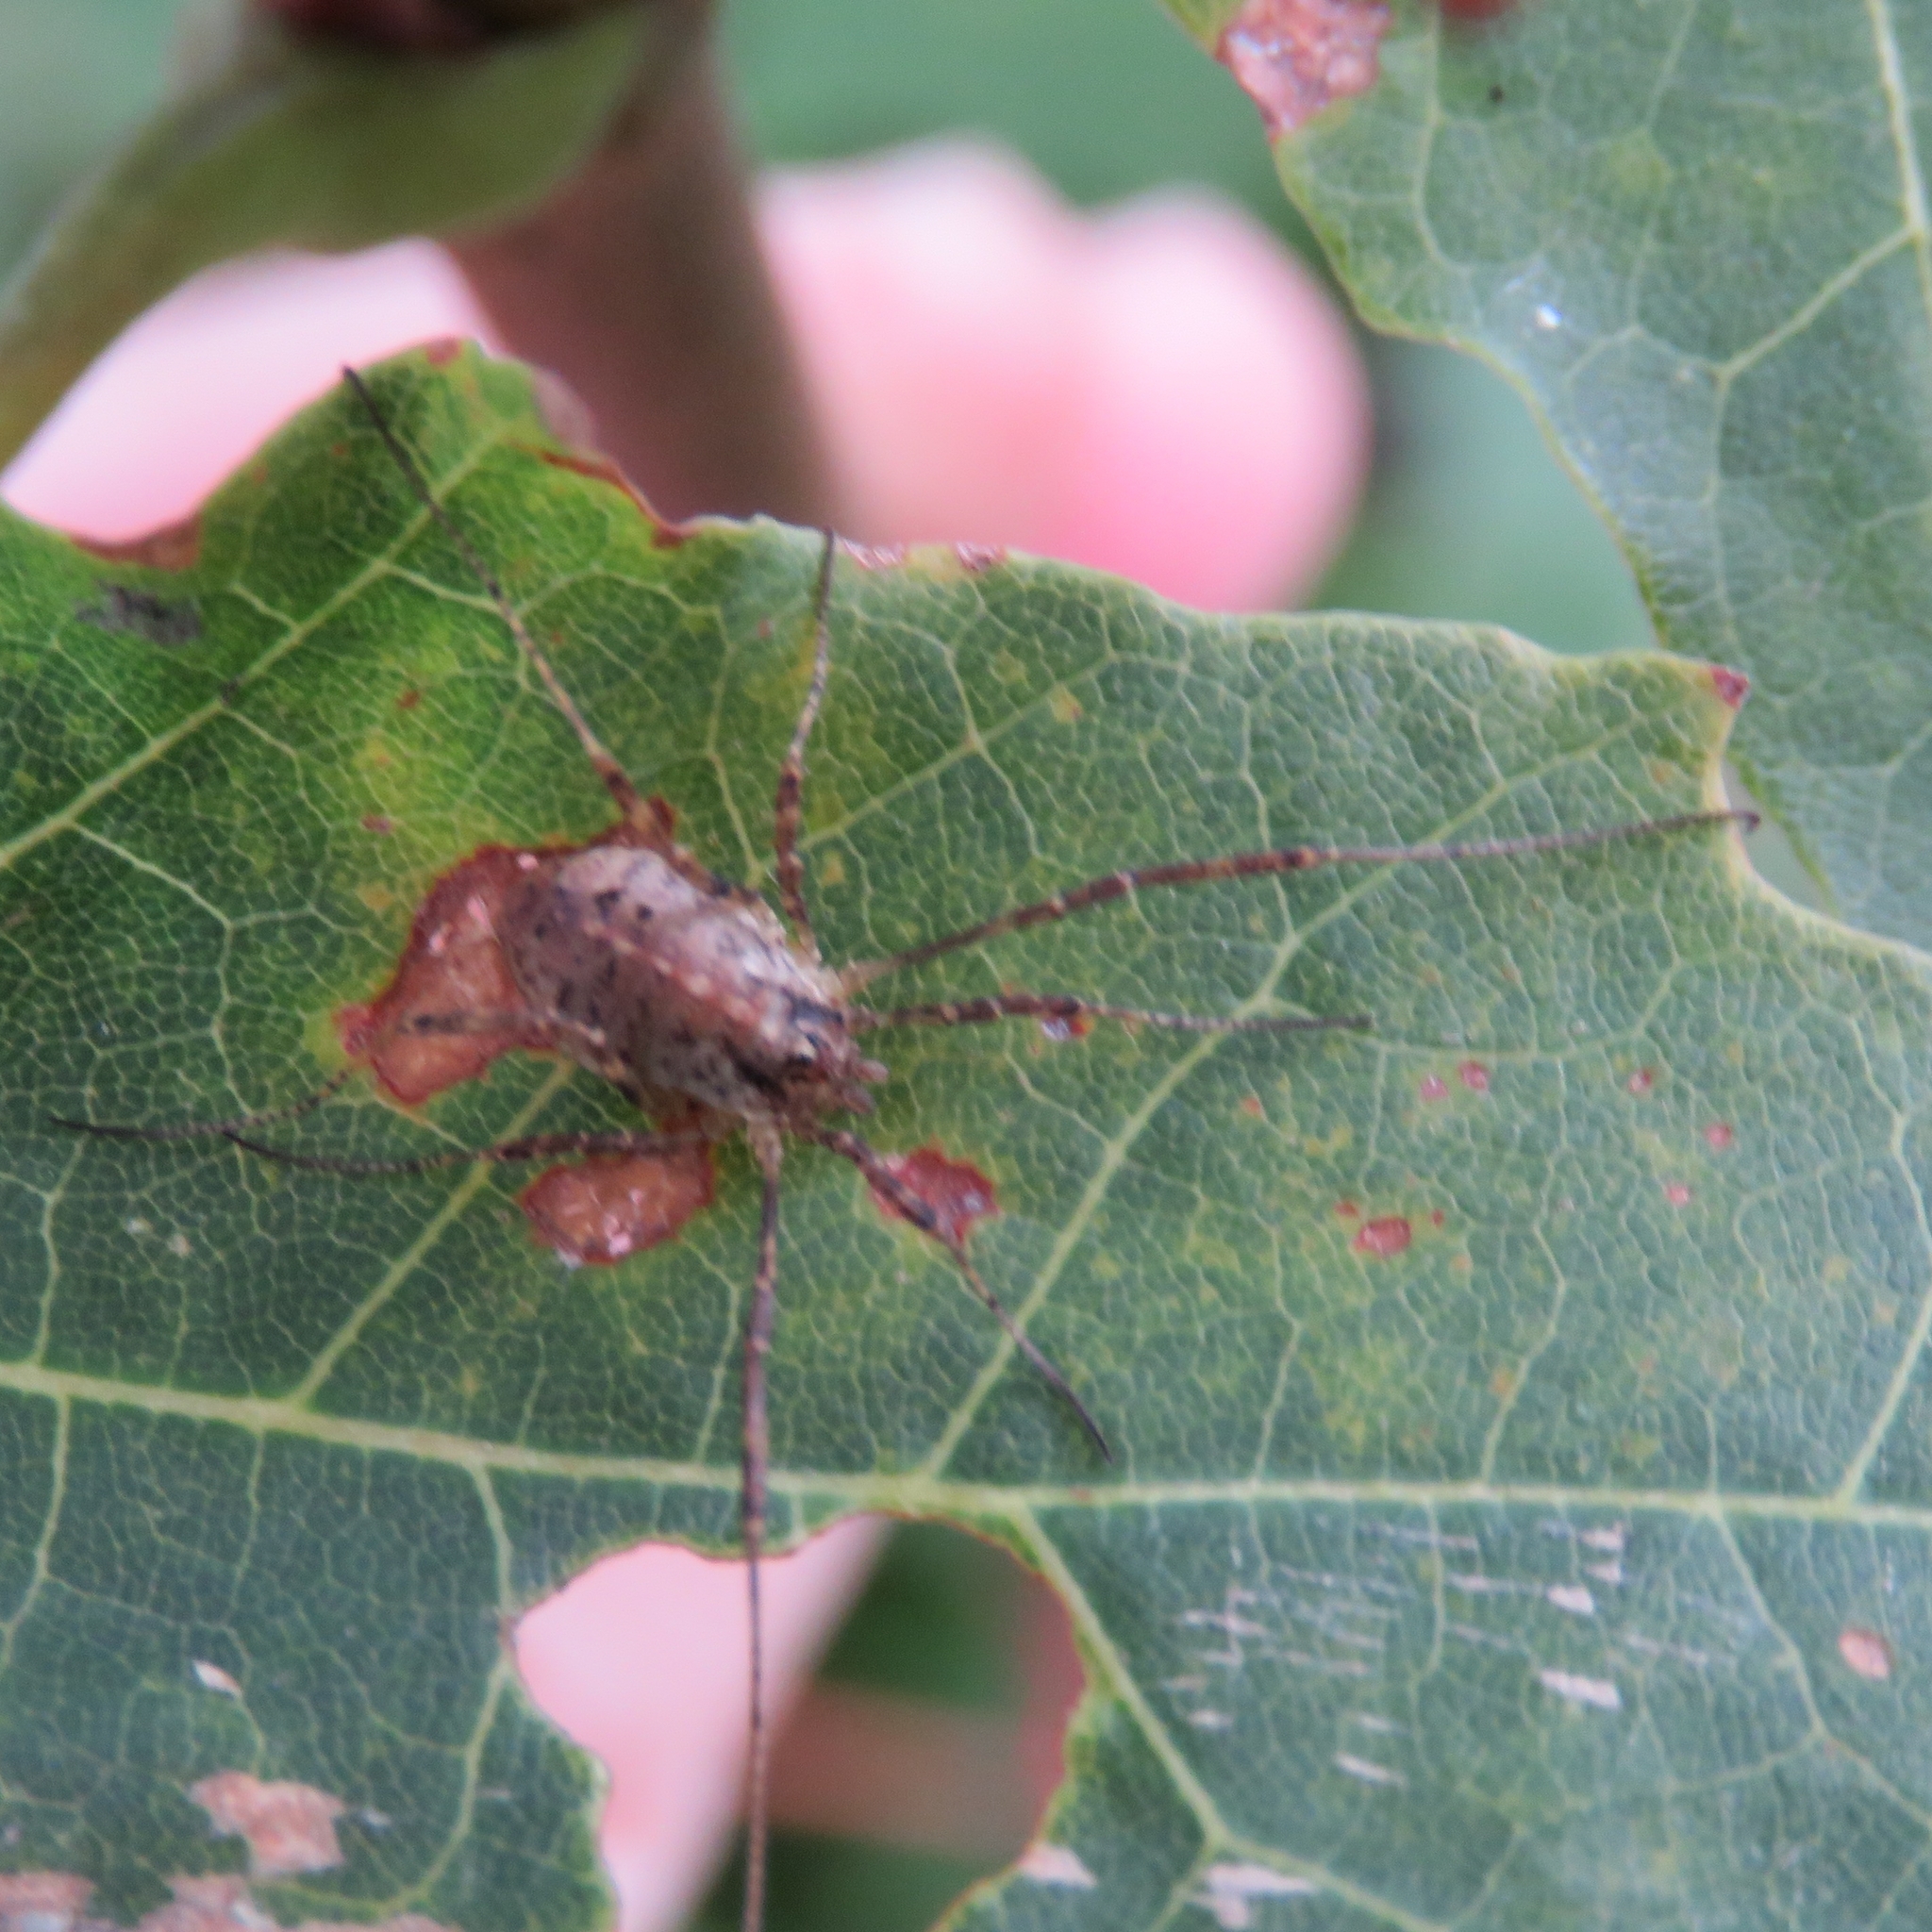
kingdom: Animalia
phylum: Arthropoda
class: Arachnida
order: Opiliones
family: Phalangiidae
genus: Paroligolophus
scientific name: Paroligolophus agrestis
